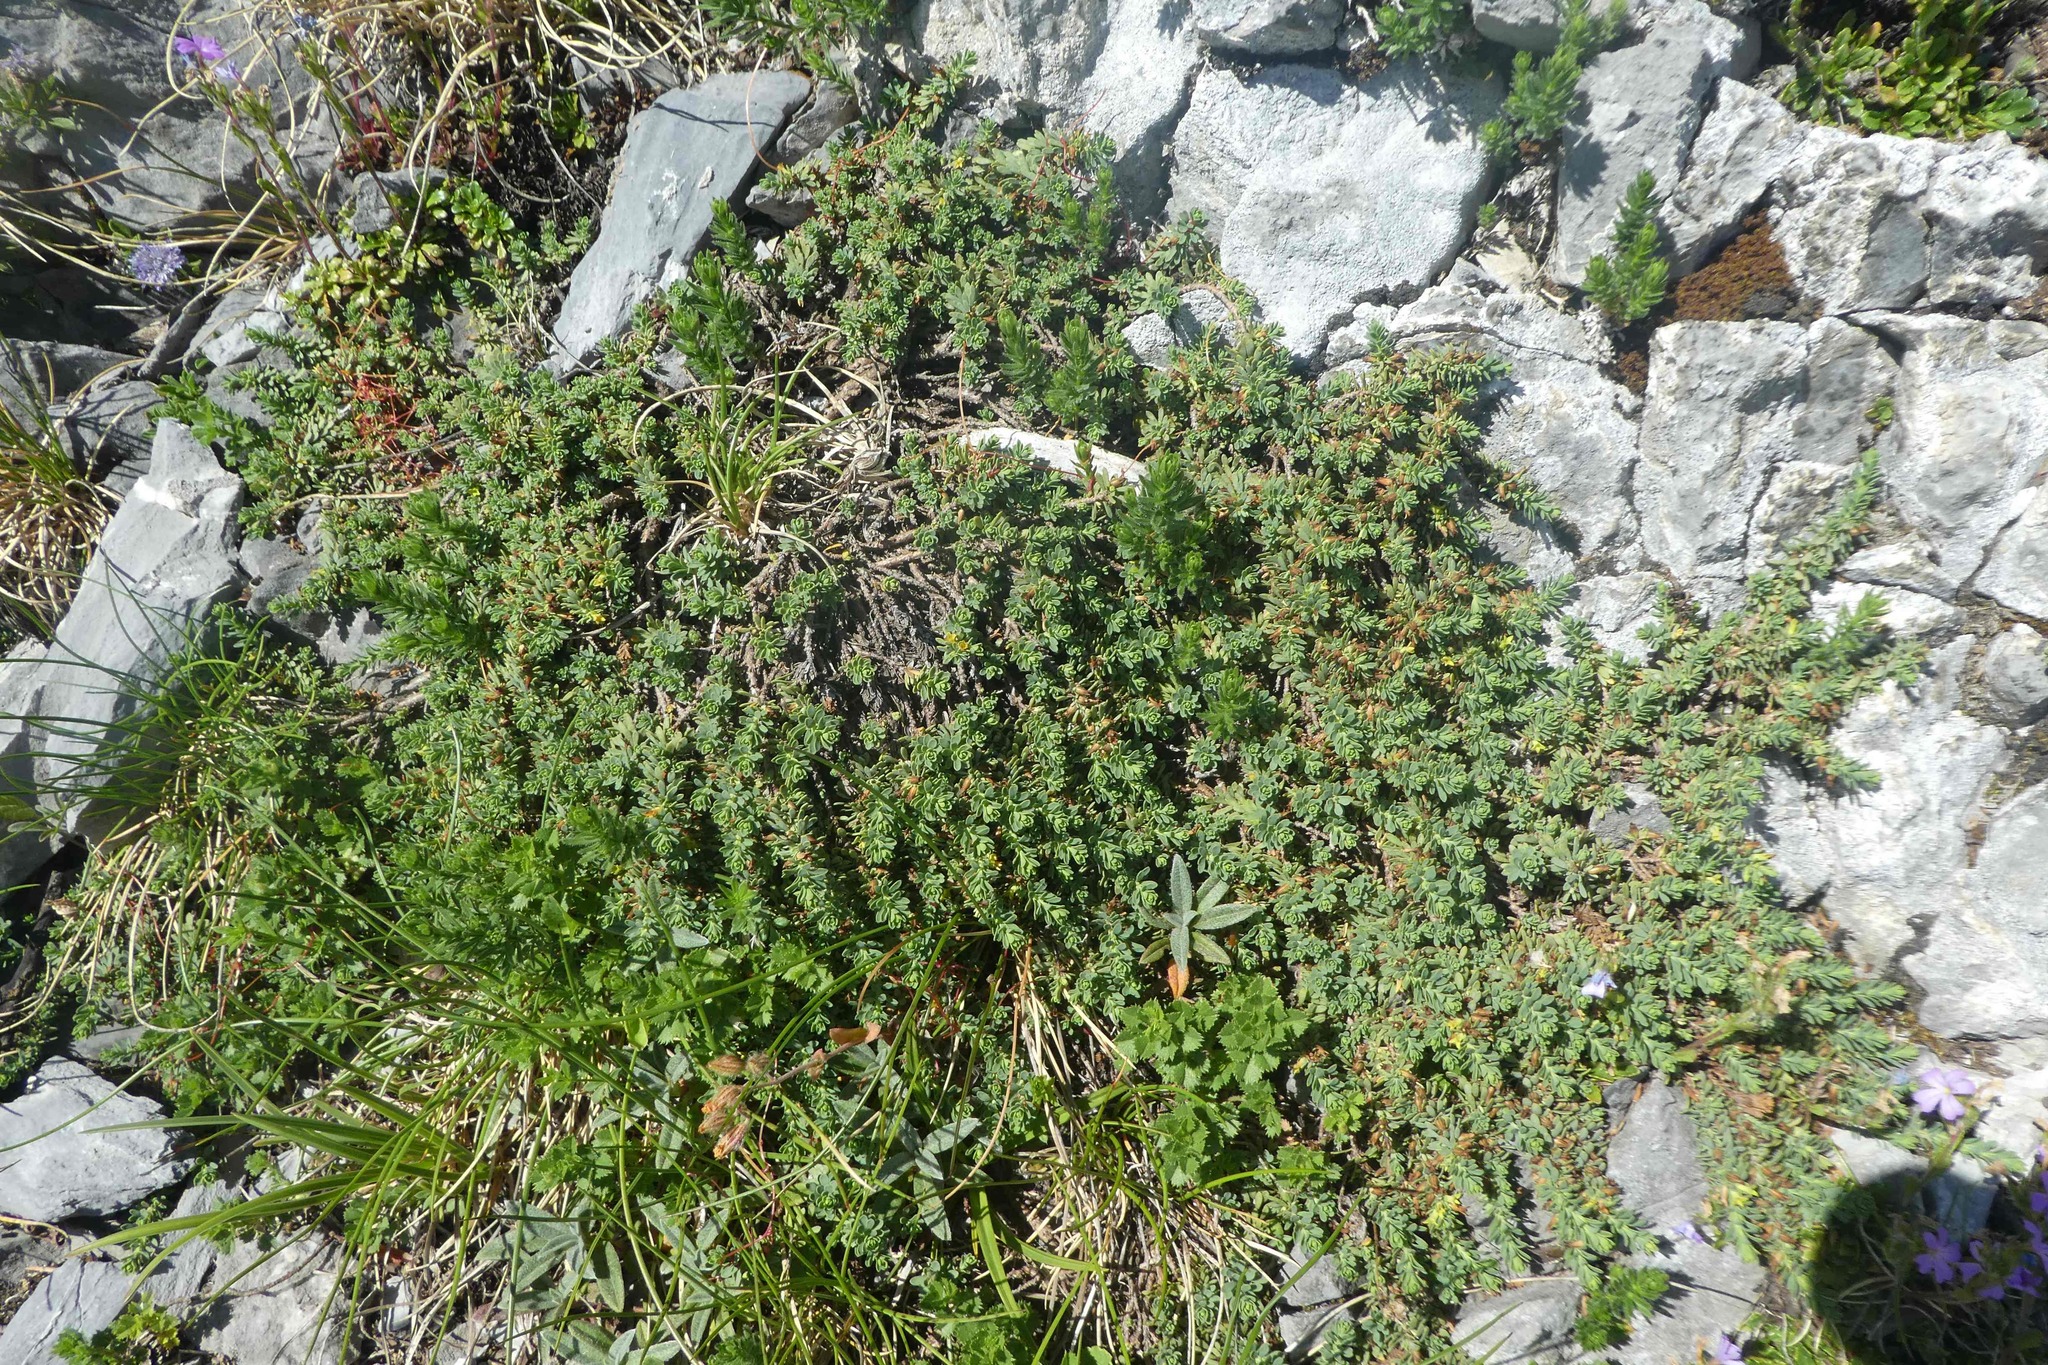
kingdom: Plantae
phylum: Tracheophyta
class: Magnoliopsida
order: Malvales
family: Thymelaeaceae
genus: Thymelaea
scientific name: Thymelaea dioica
